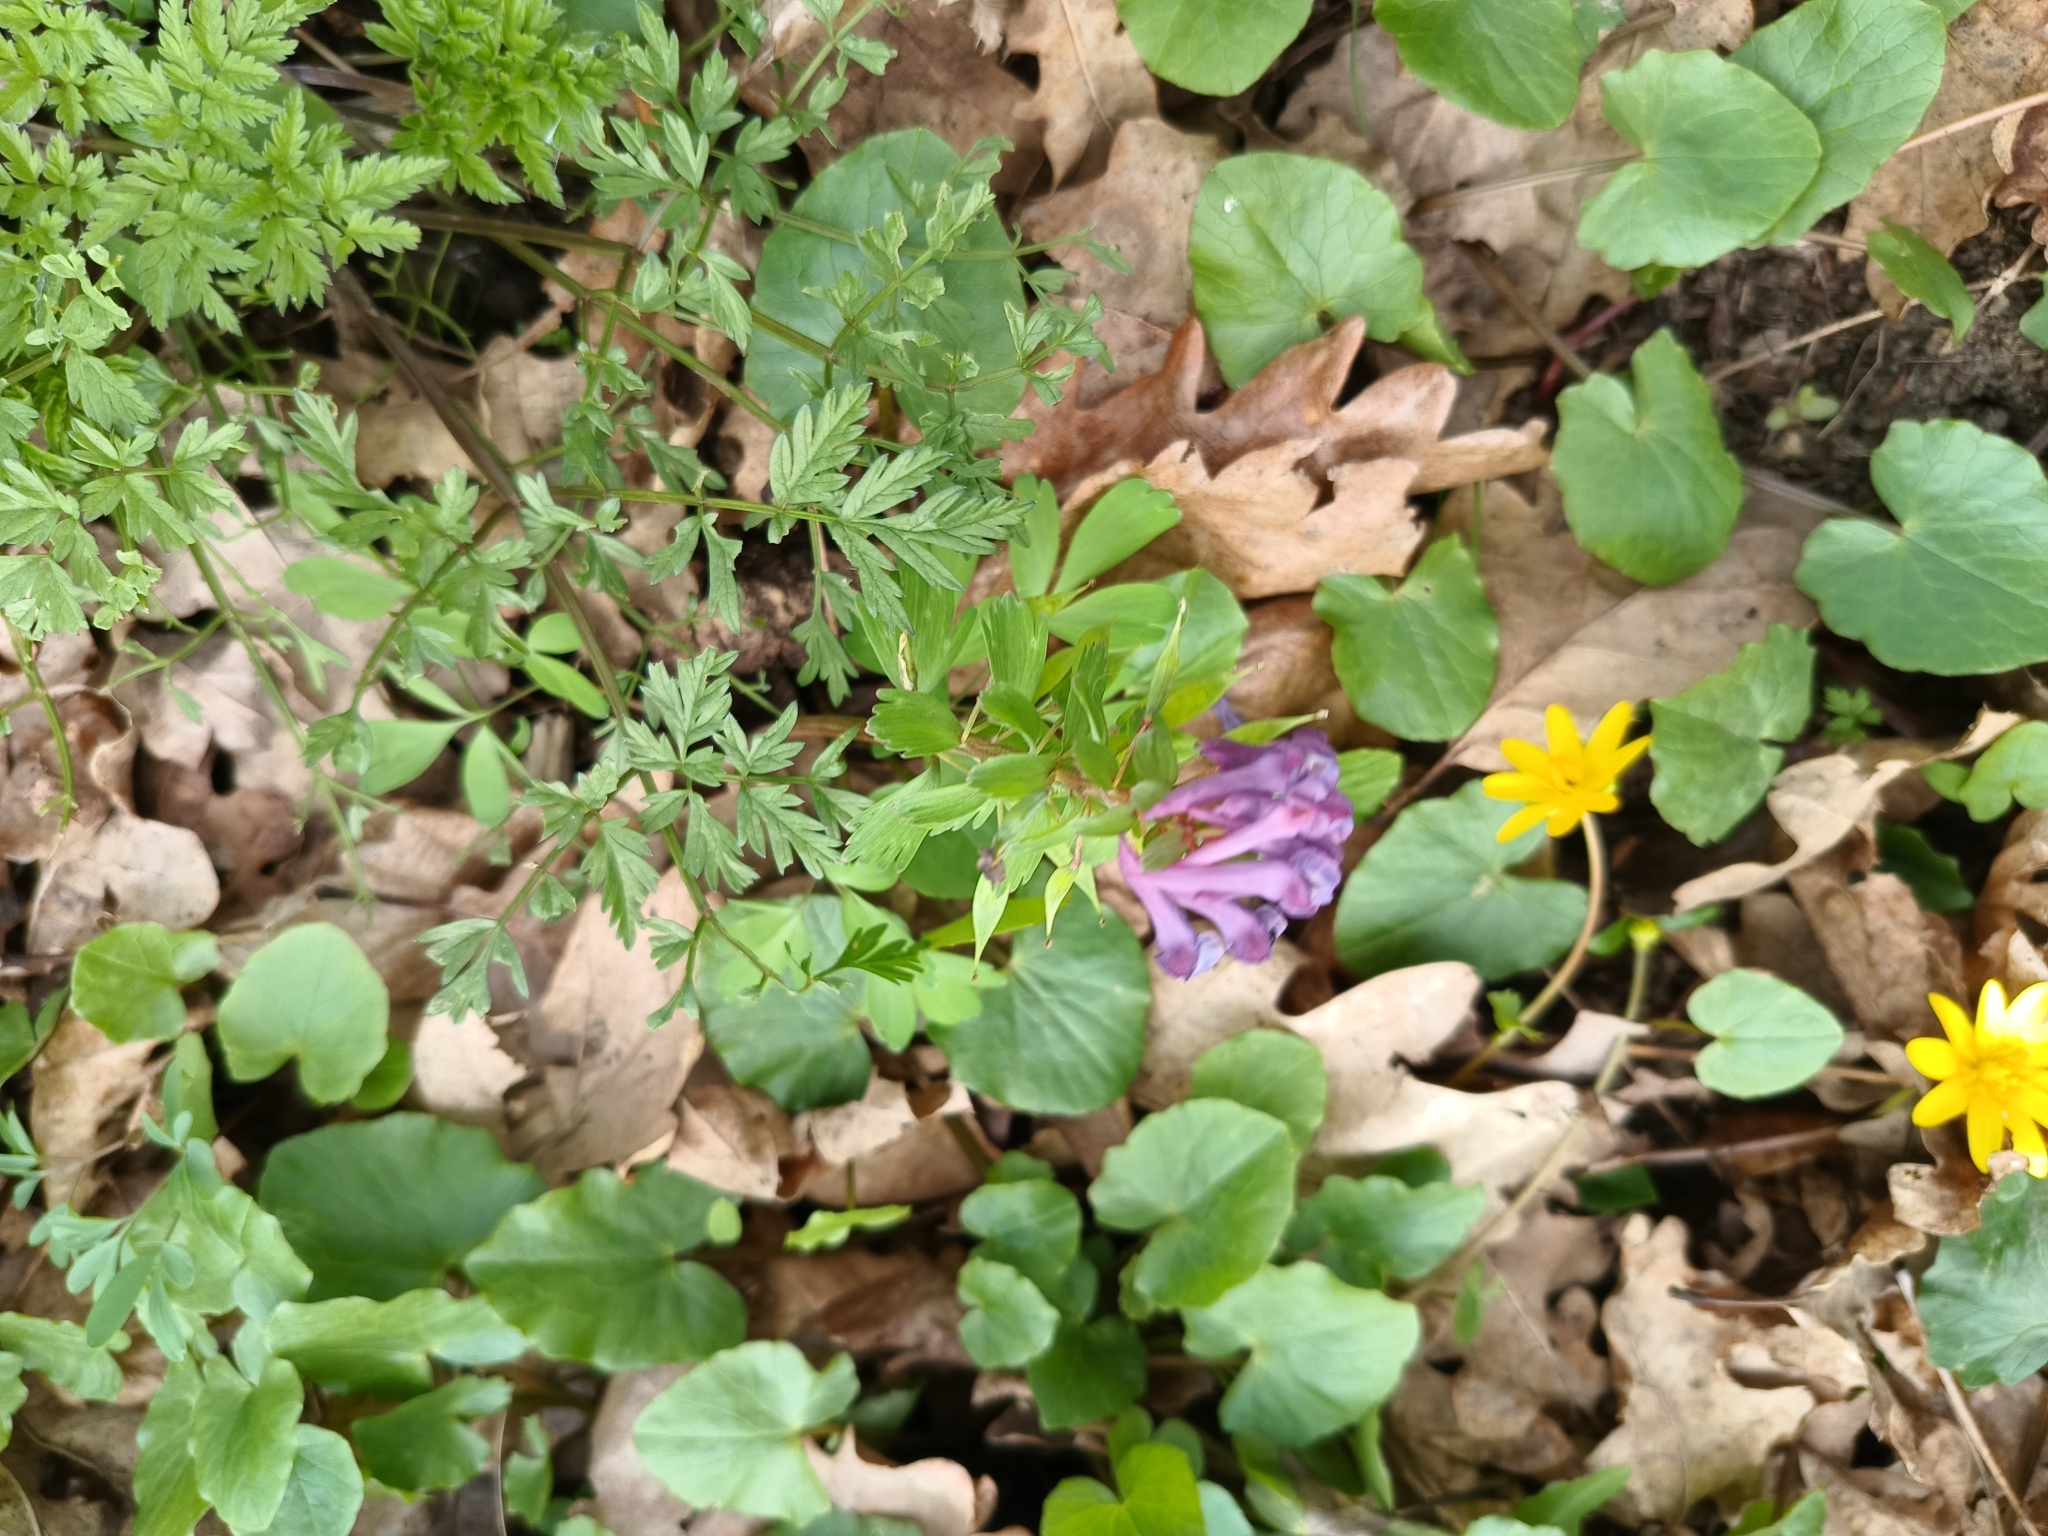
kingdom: Plantae
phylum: Tracheophyta
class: Magnoliopsida
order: Ranunculales
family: Papaveraceae
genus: Corydalis
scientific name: Corydalis solida
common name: Bird-in-a-bush
